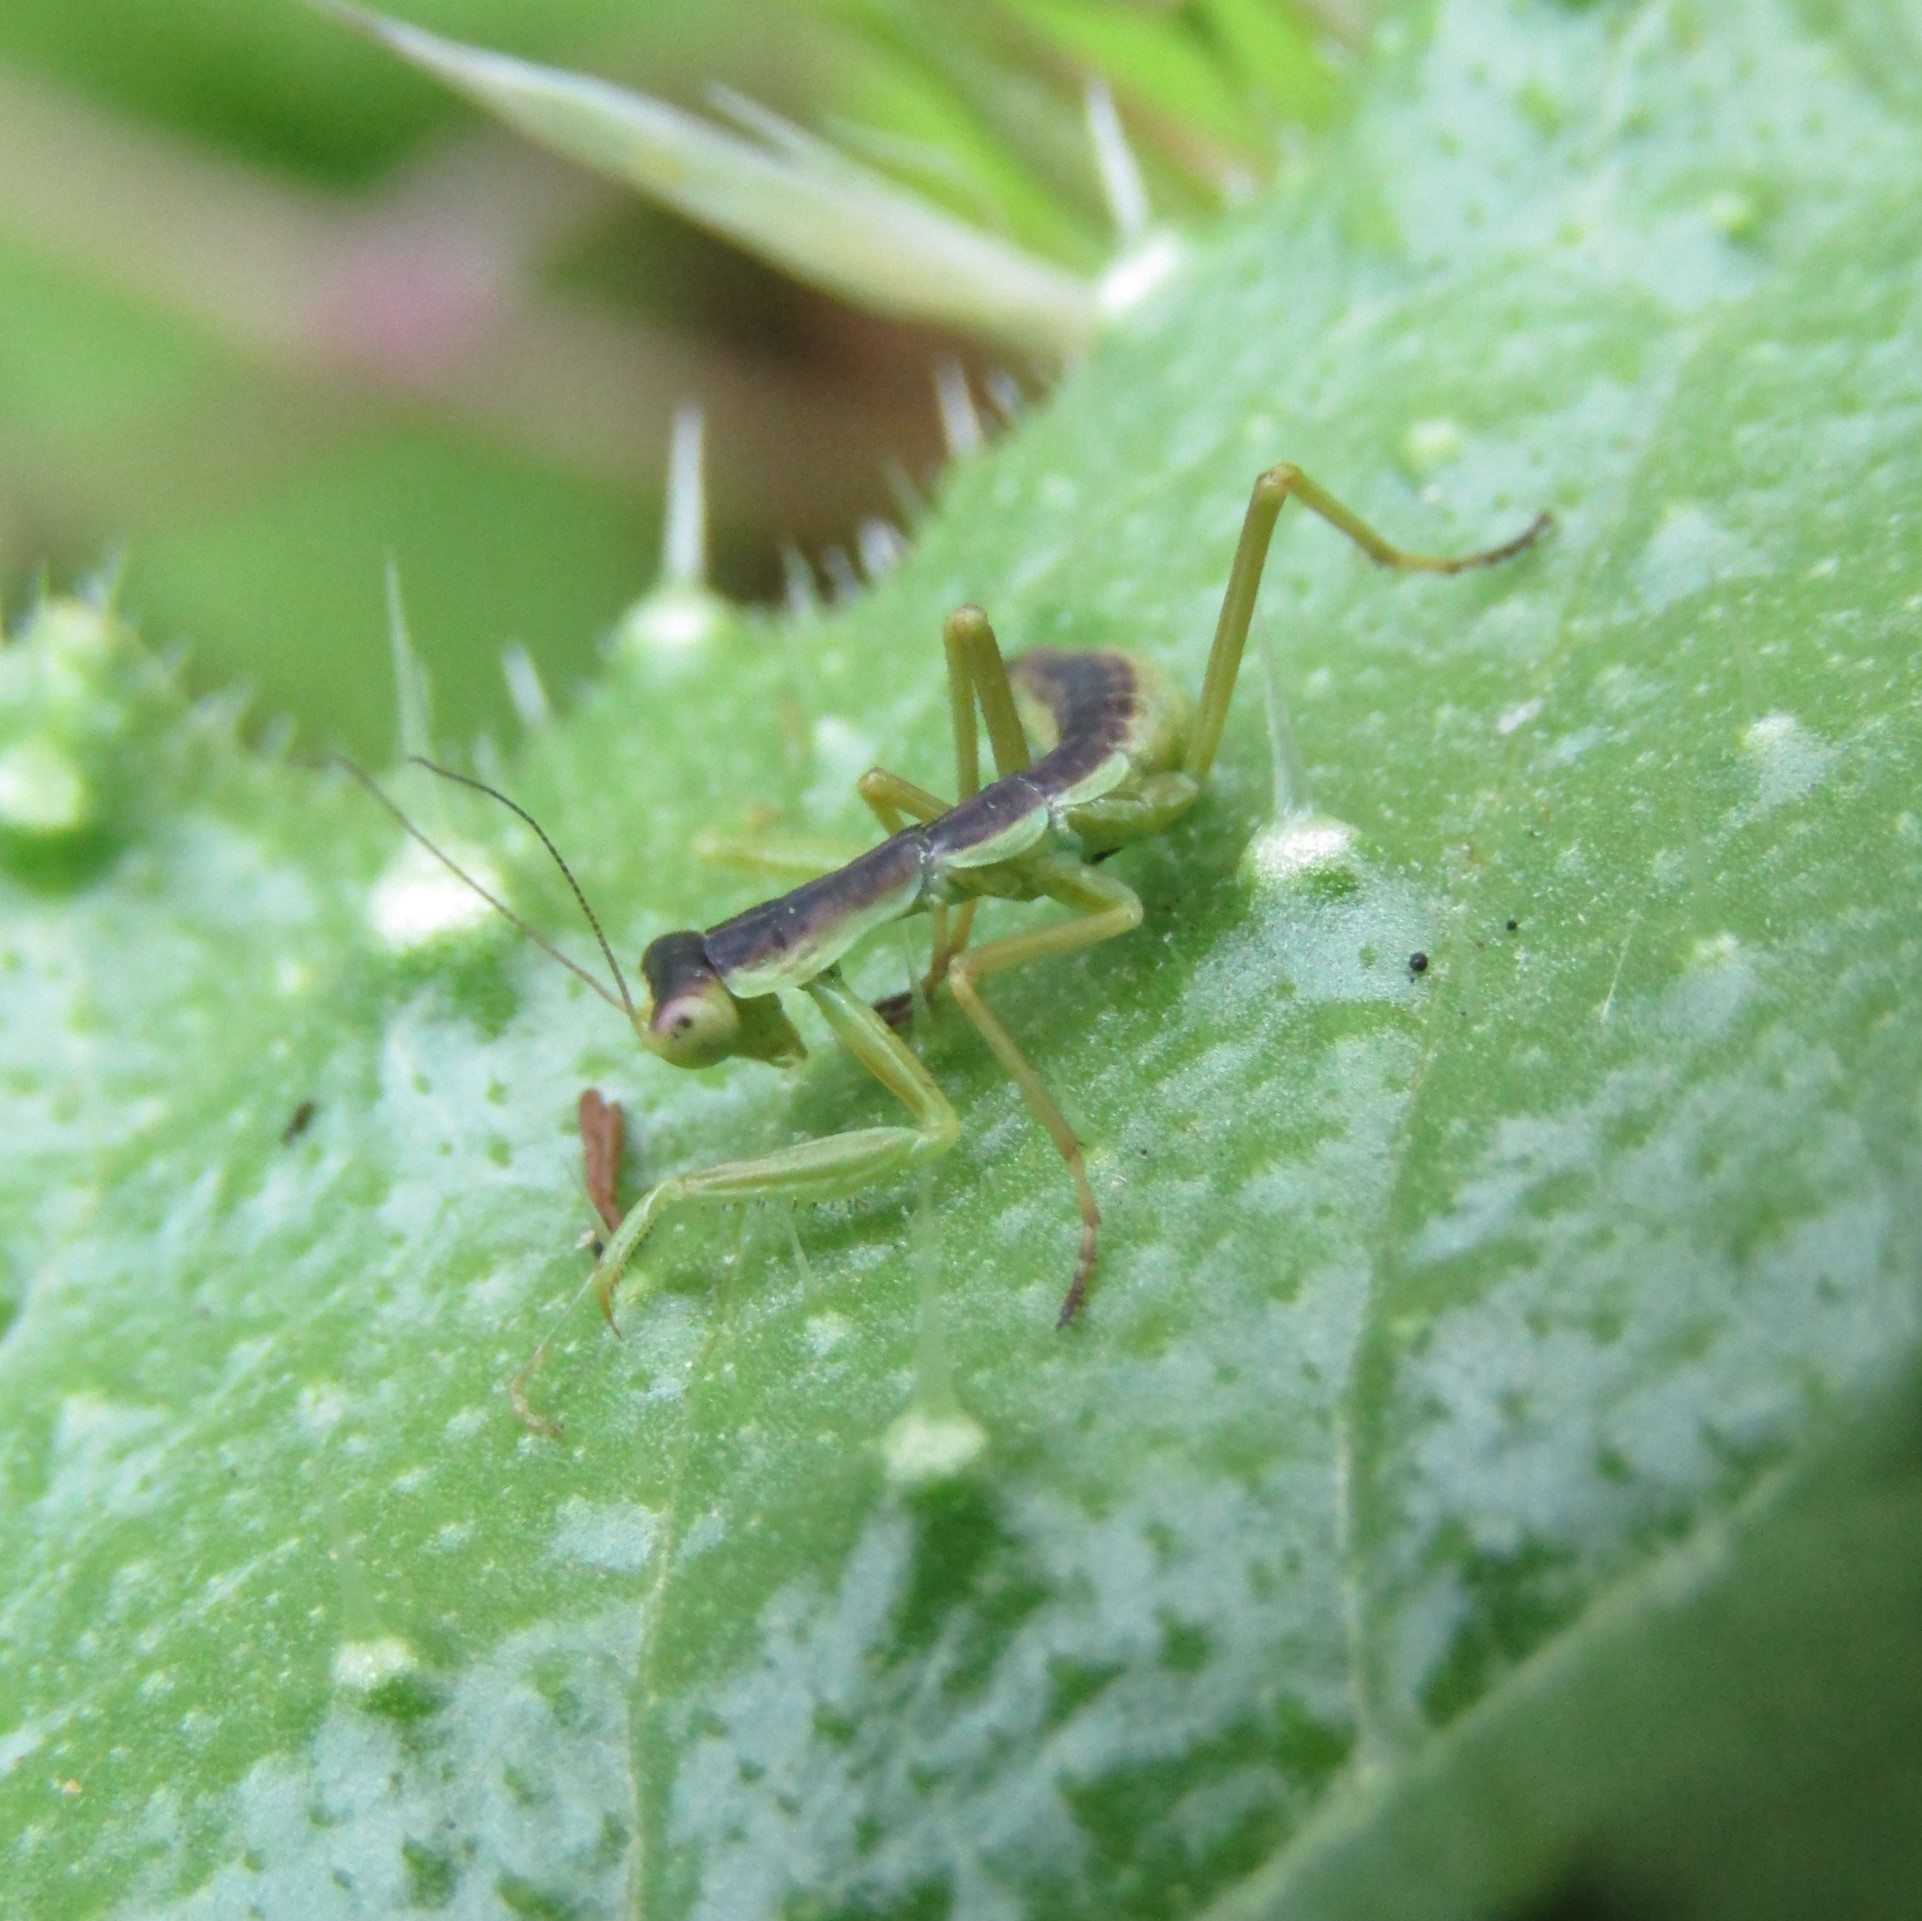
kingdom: Animalia
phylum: Arthropoda
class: Insecta
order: Mantodea
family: Mantidae
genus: Orthodera
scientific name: Orthodera novaezealandiae
